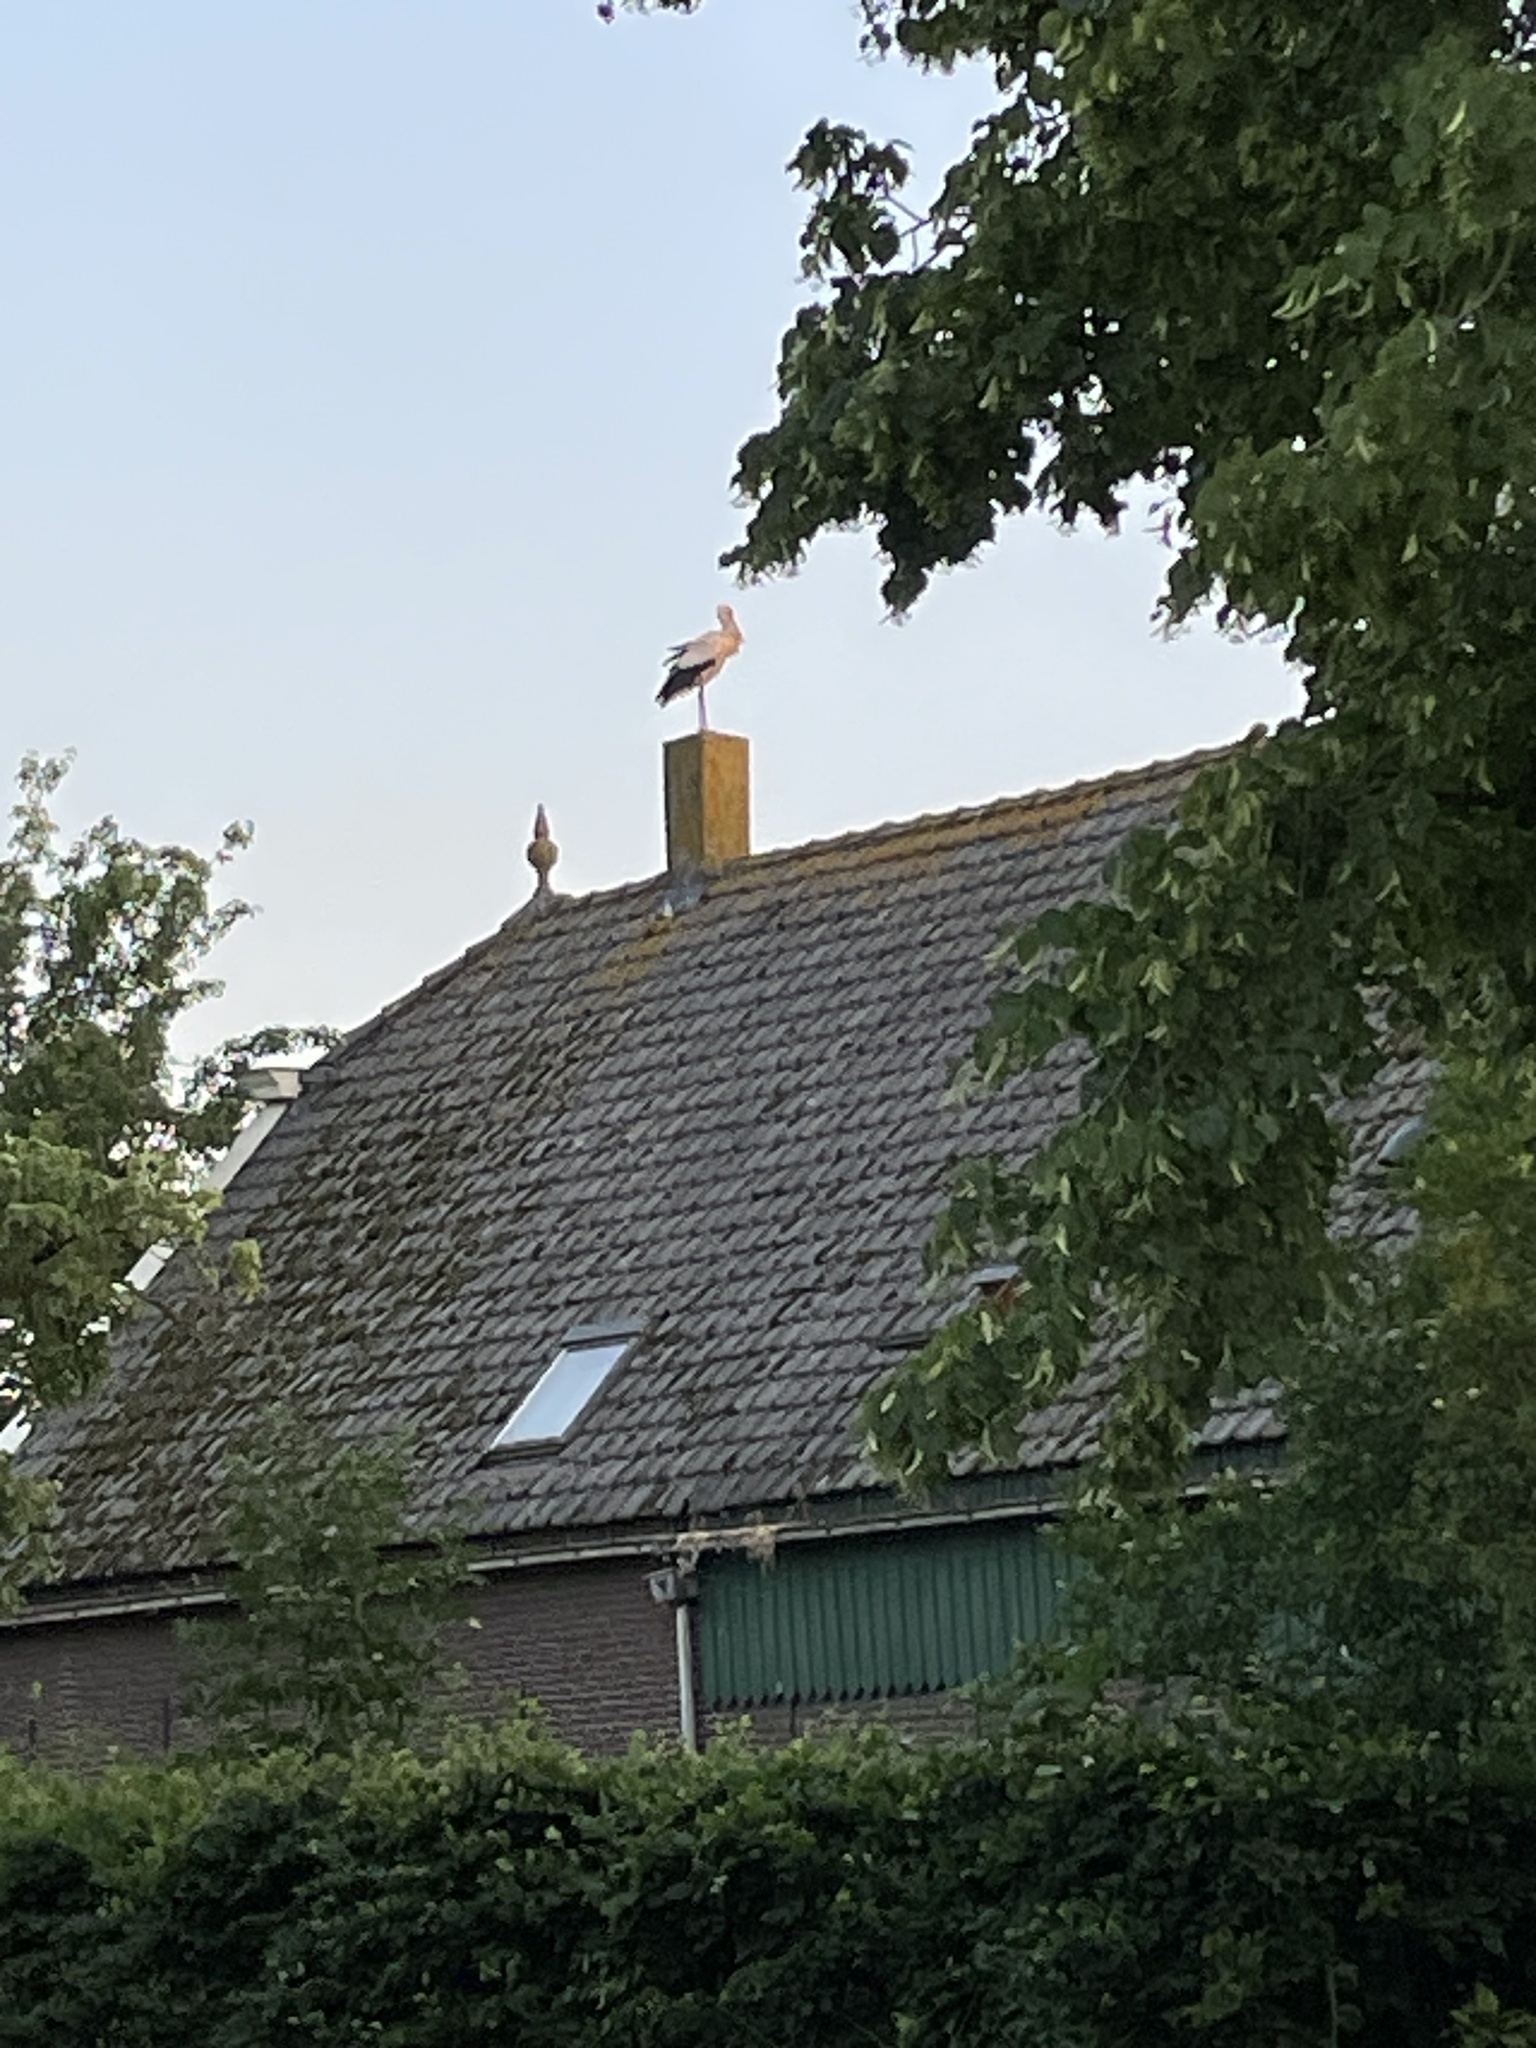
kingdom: Animalia
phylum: Chordata
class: Aves
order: Ciconiiformes
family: Ciconiidae
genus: Ciconia
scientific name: Ciconia ciconia
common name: White stork
